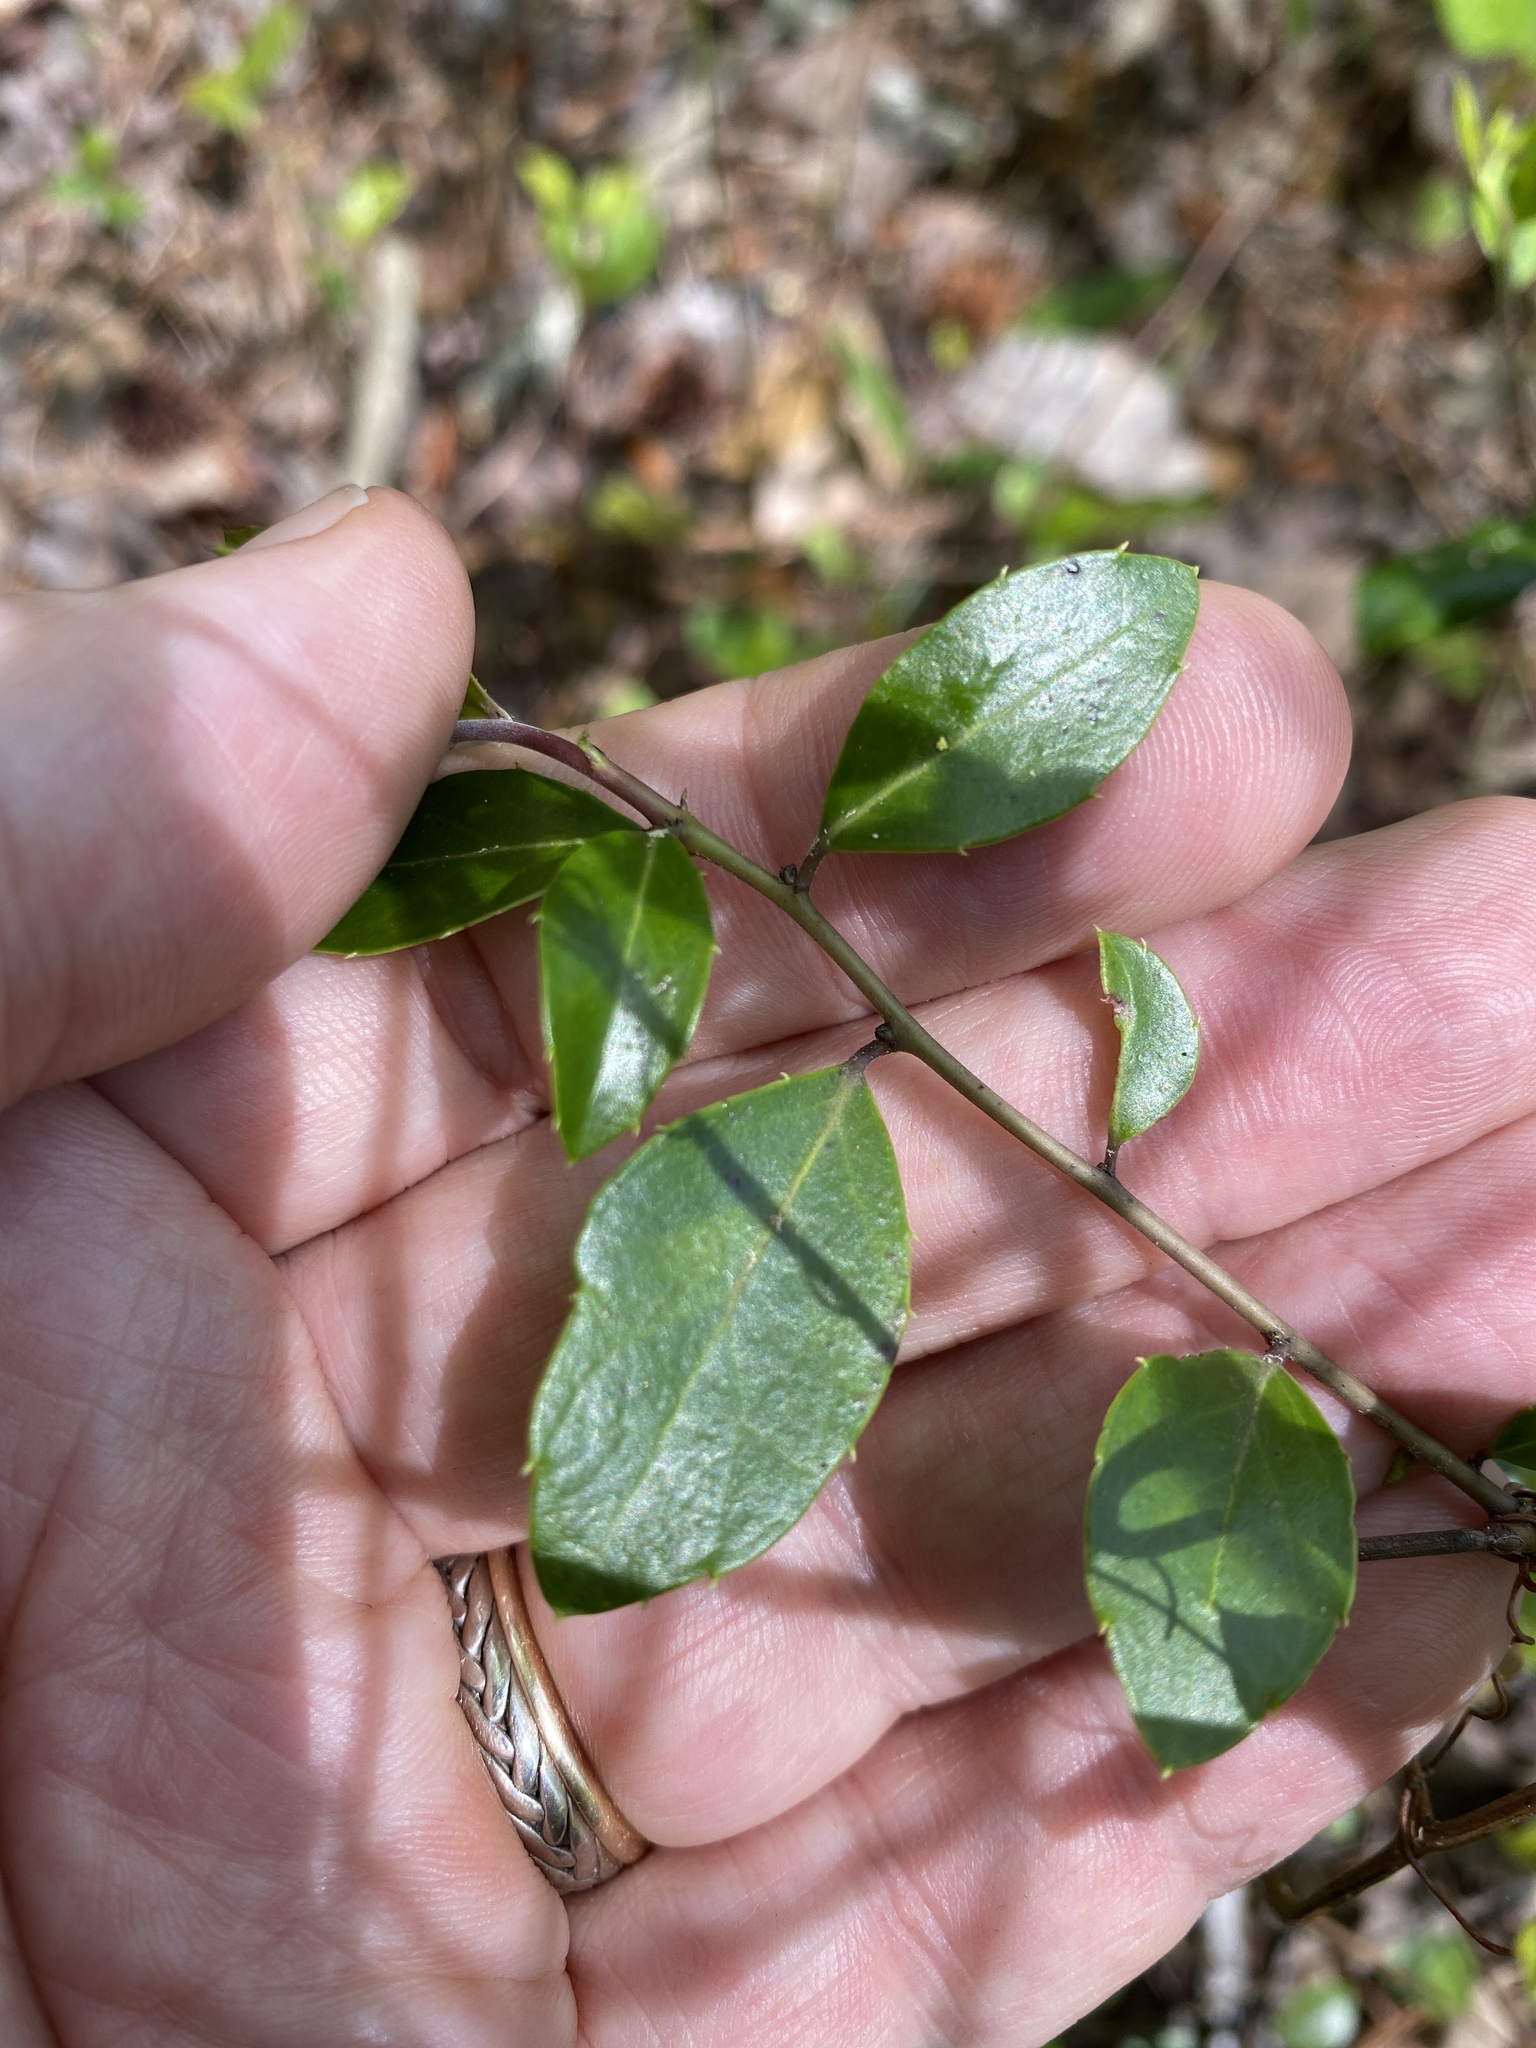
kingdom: Plantae
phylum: Tracheophyta
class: Magnoliopsida
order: Aquifoliales
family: Aquifoliaceae
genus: Ilex
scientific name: Ilex coriacea
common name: Sweet gallberry
